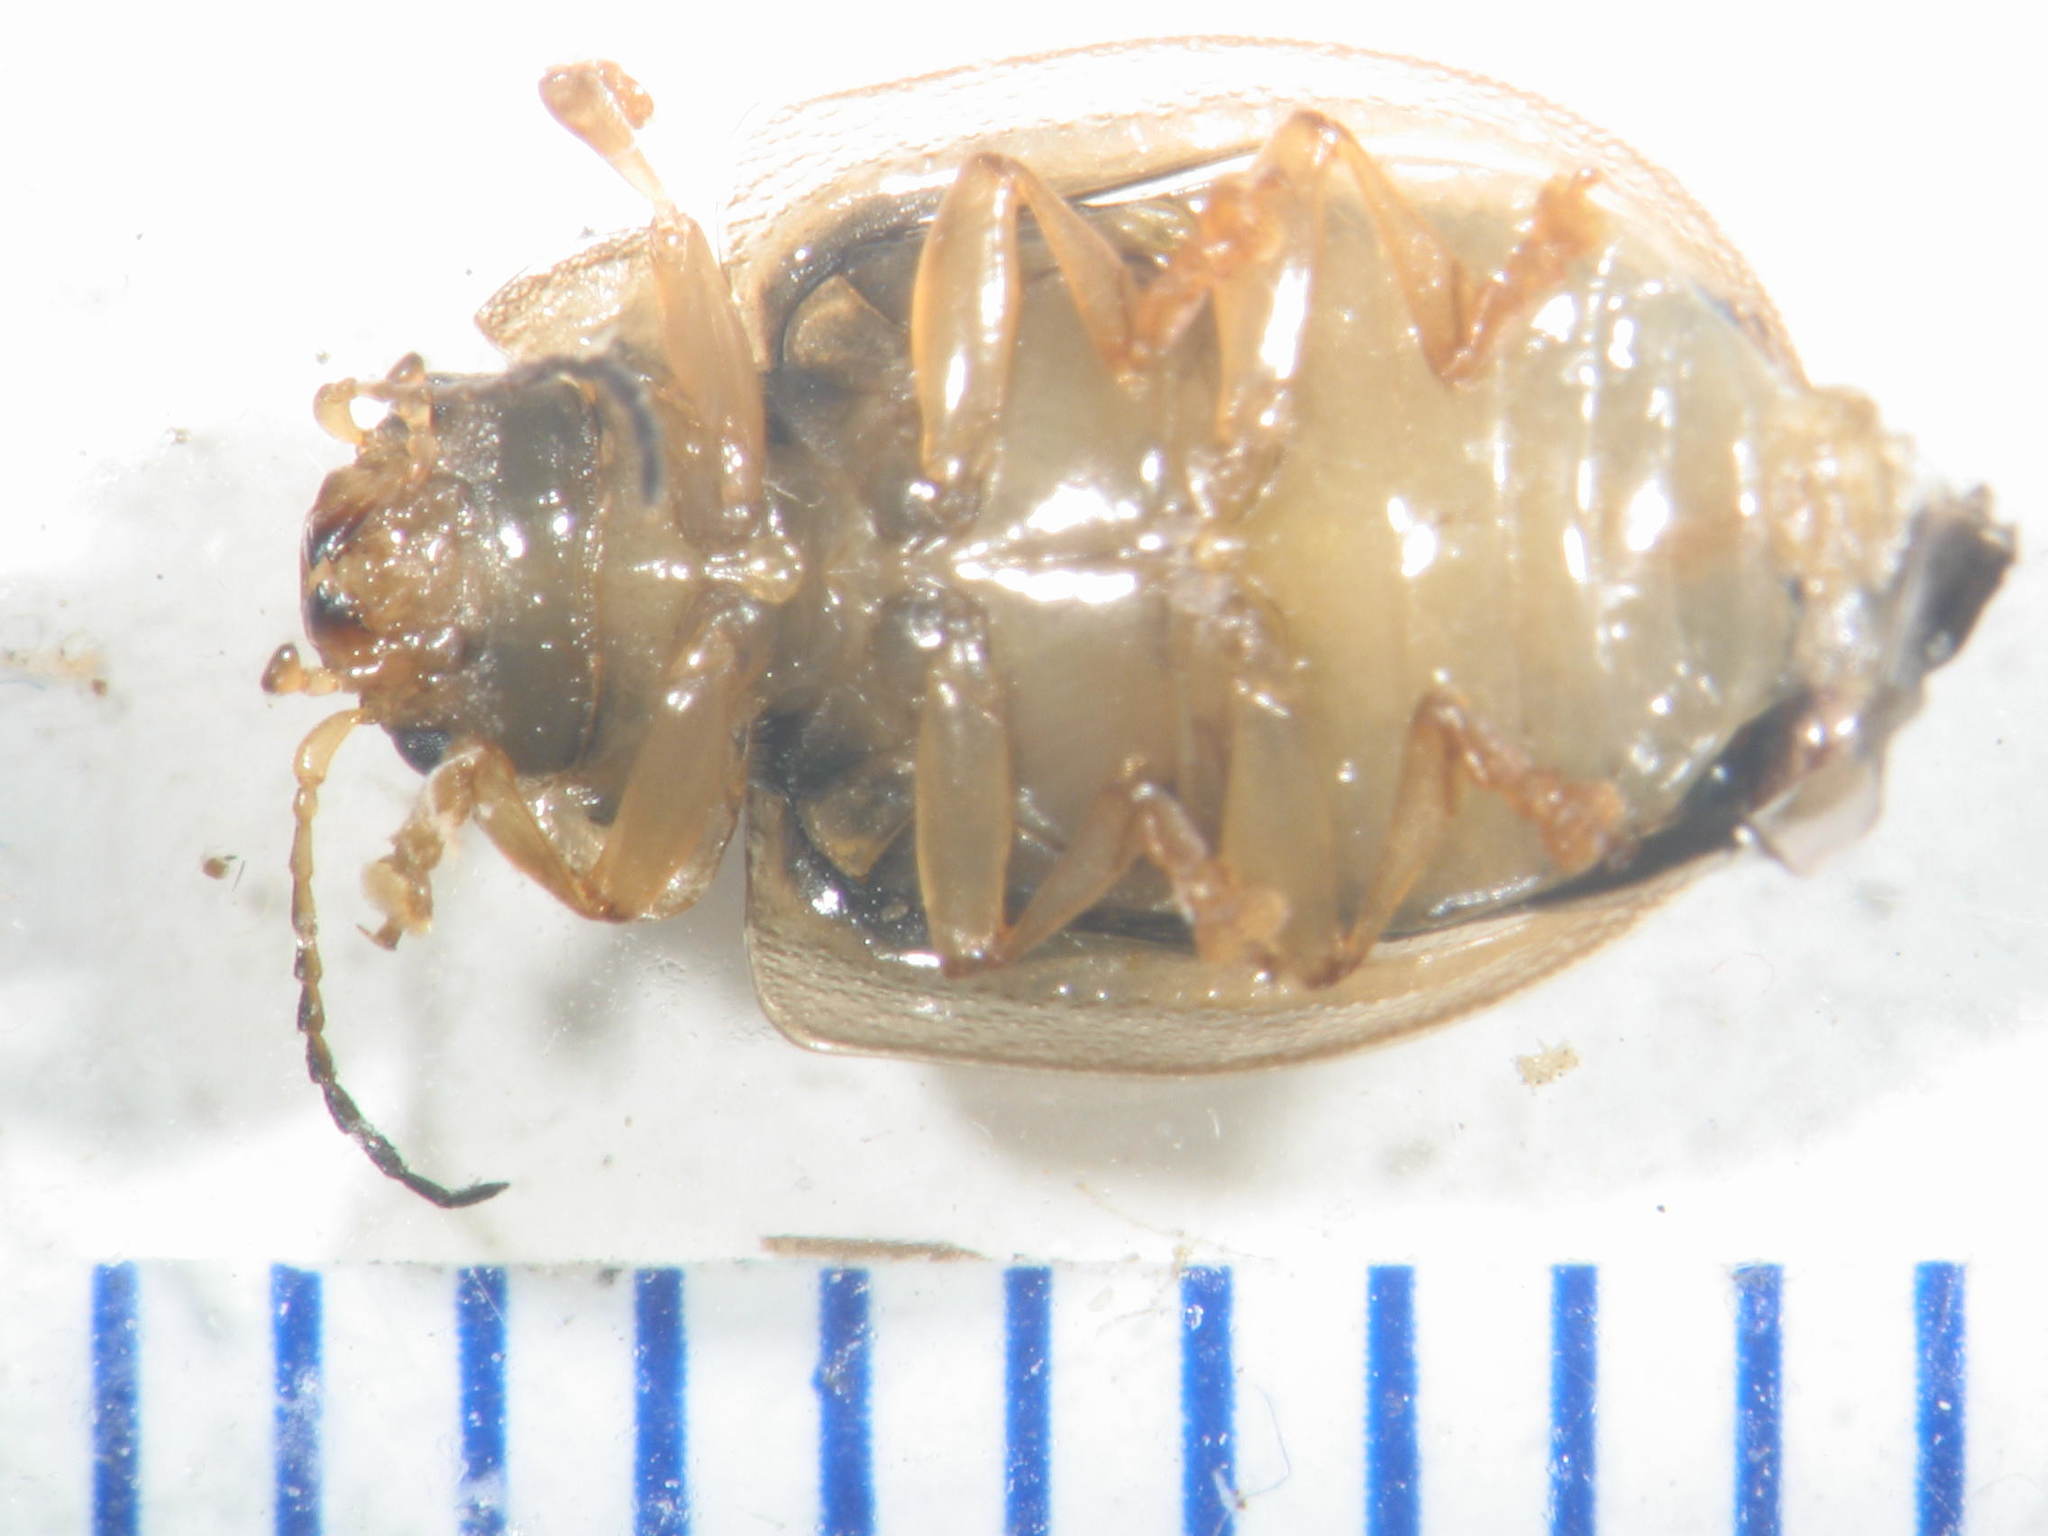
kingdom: Animalia
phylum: Arthropoda
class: Insecta
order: Coleoptera
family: Chrysomelidae
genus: Paropsisterna
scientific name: Paropsisterna bimaculata
